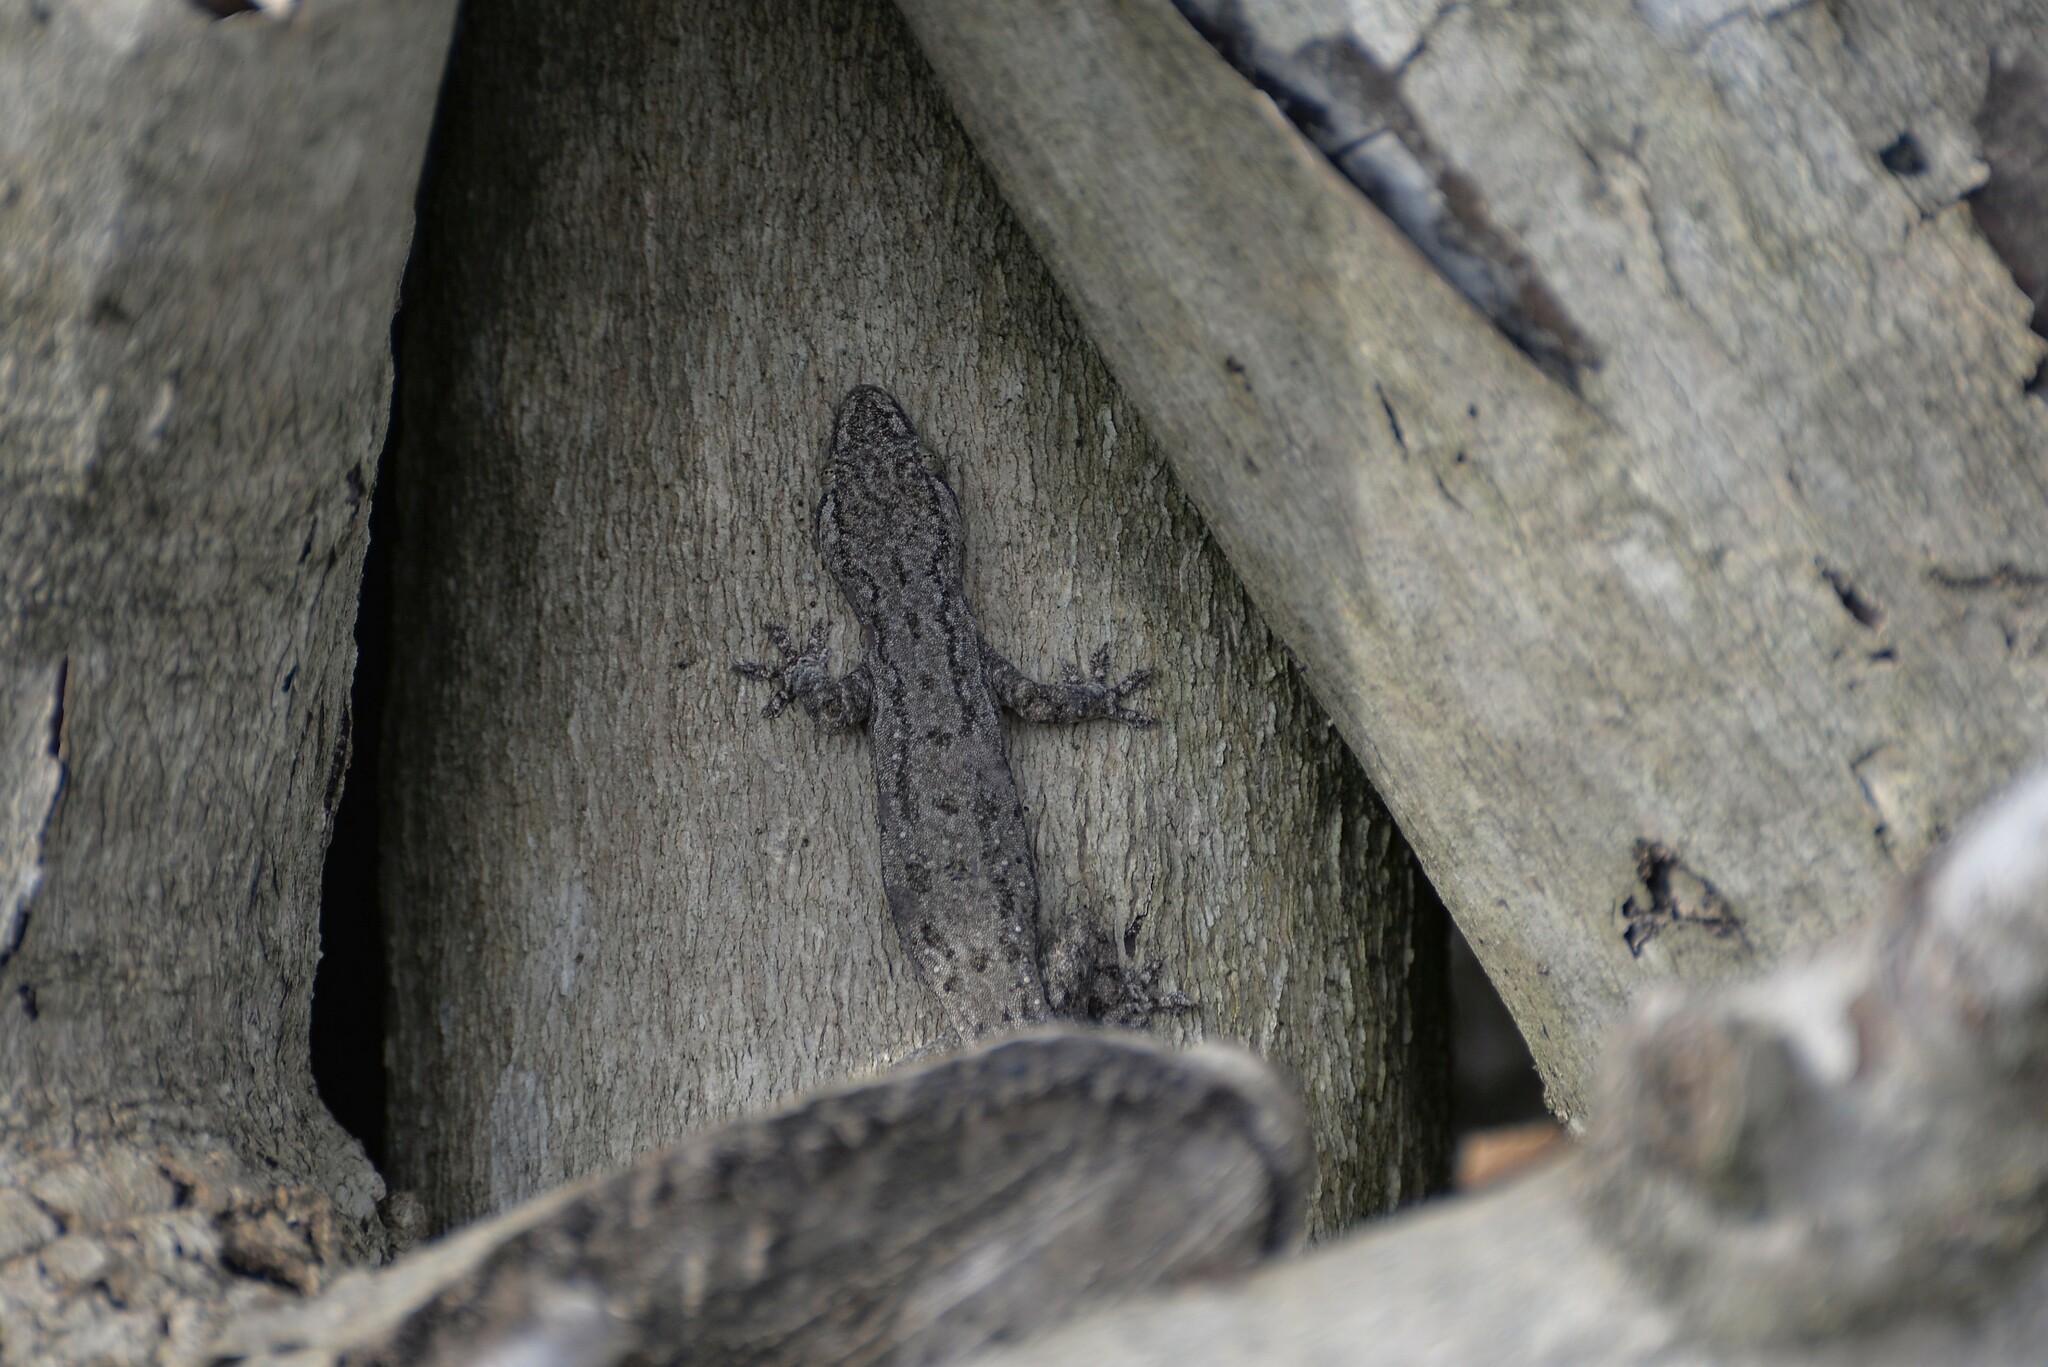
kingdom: Animalia
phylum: Chordata
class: Squamata
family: Gekkonidae
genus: Hemidactylus
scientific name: Hemidactylus frenatus
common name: Common house gecko
